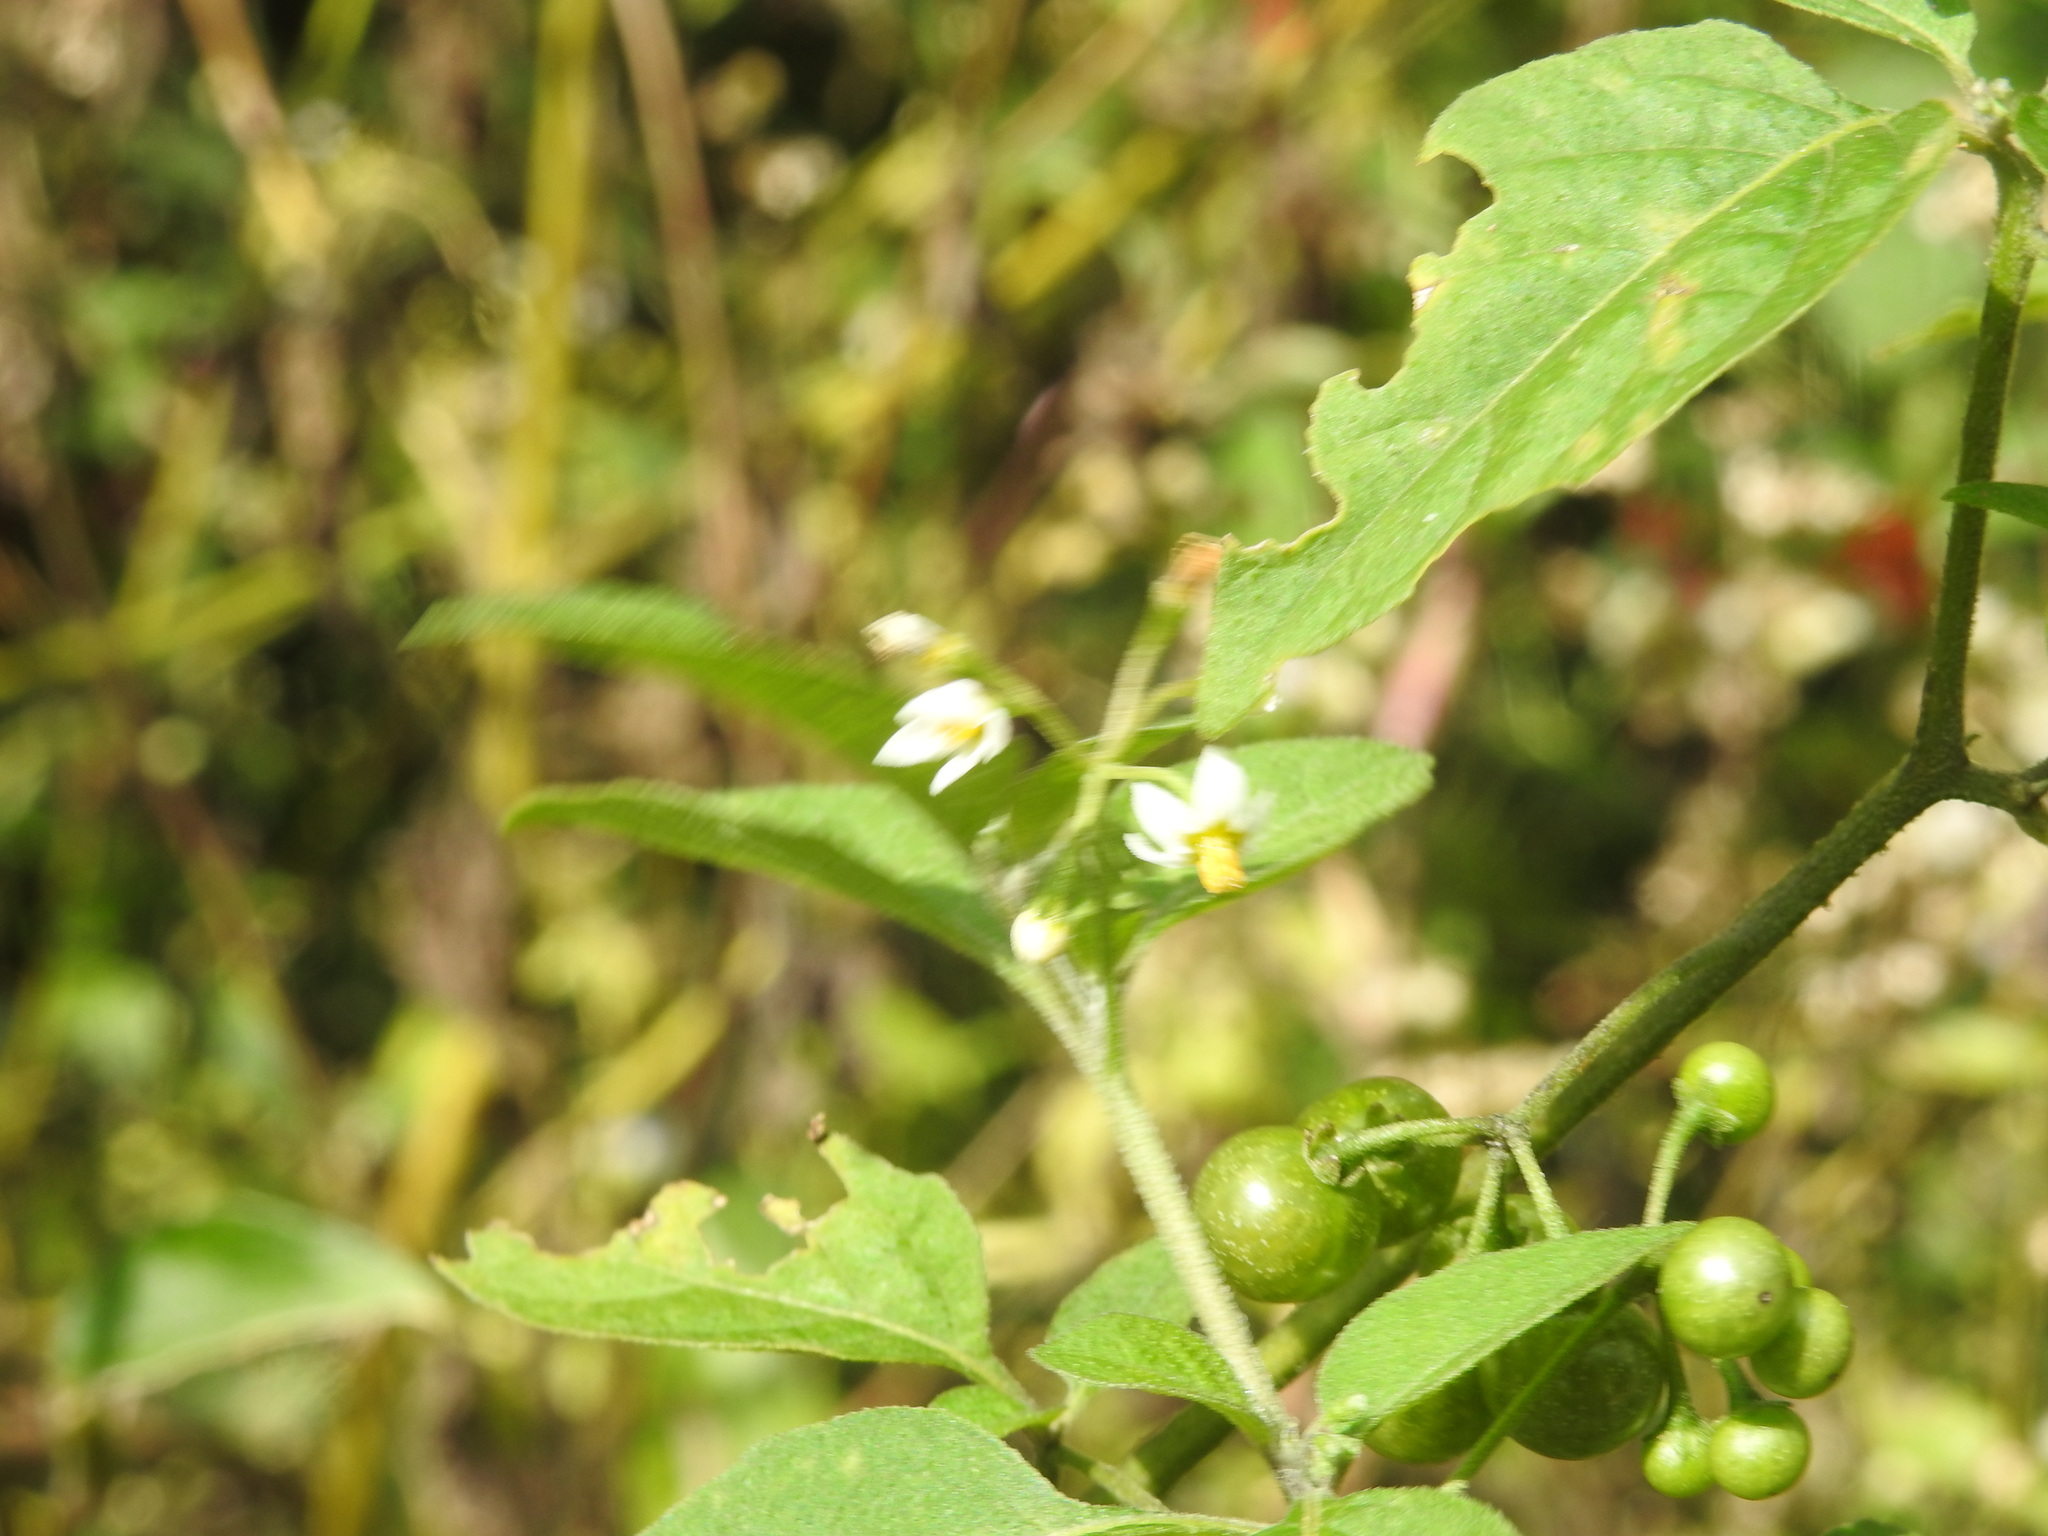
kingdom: Plantae
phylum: Tracheophyta
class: Magnoliopsida
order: Solanales
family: Solanaceae
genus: Solanum
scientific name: Solanum americanum
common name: American black nightshade
